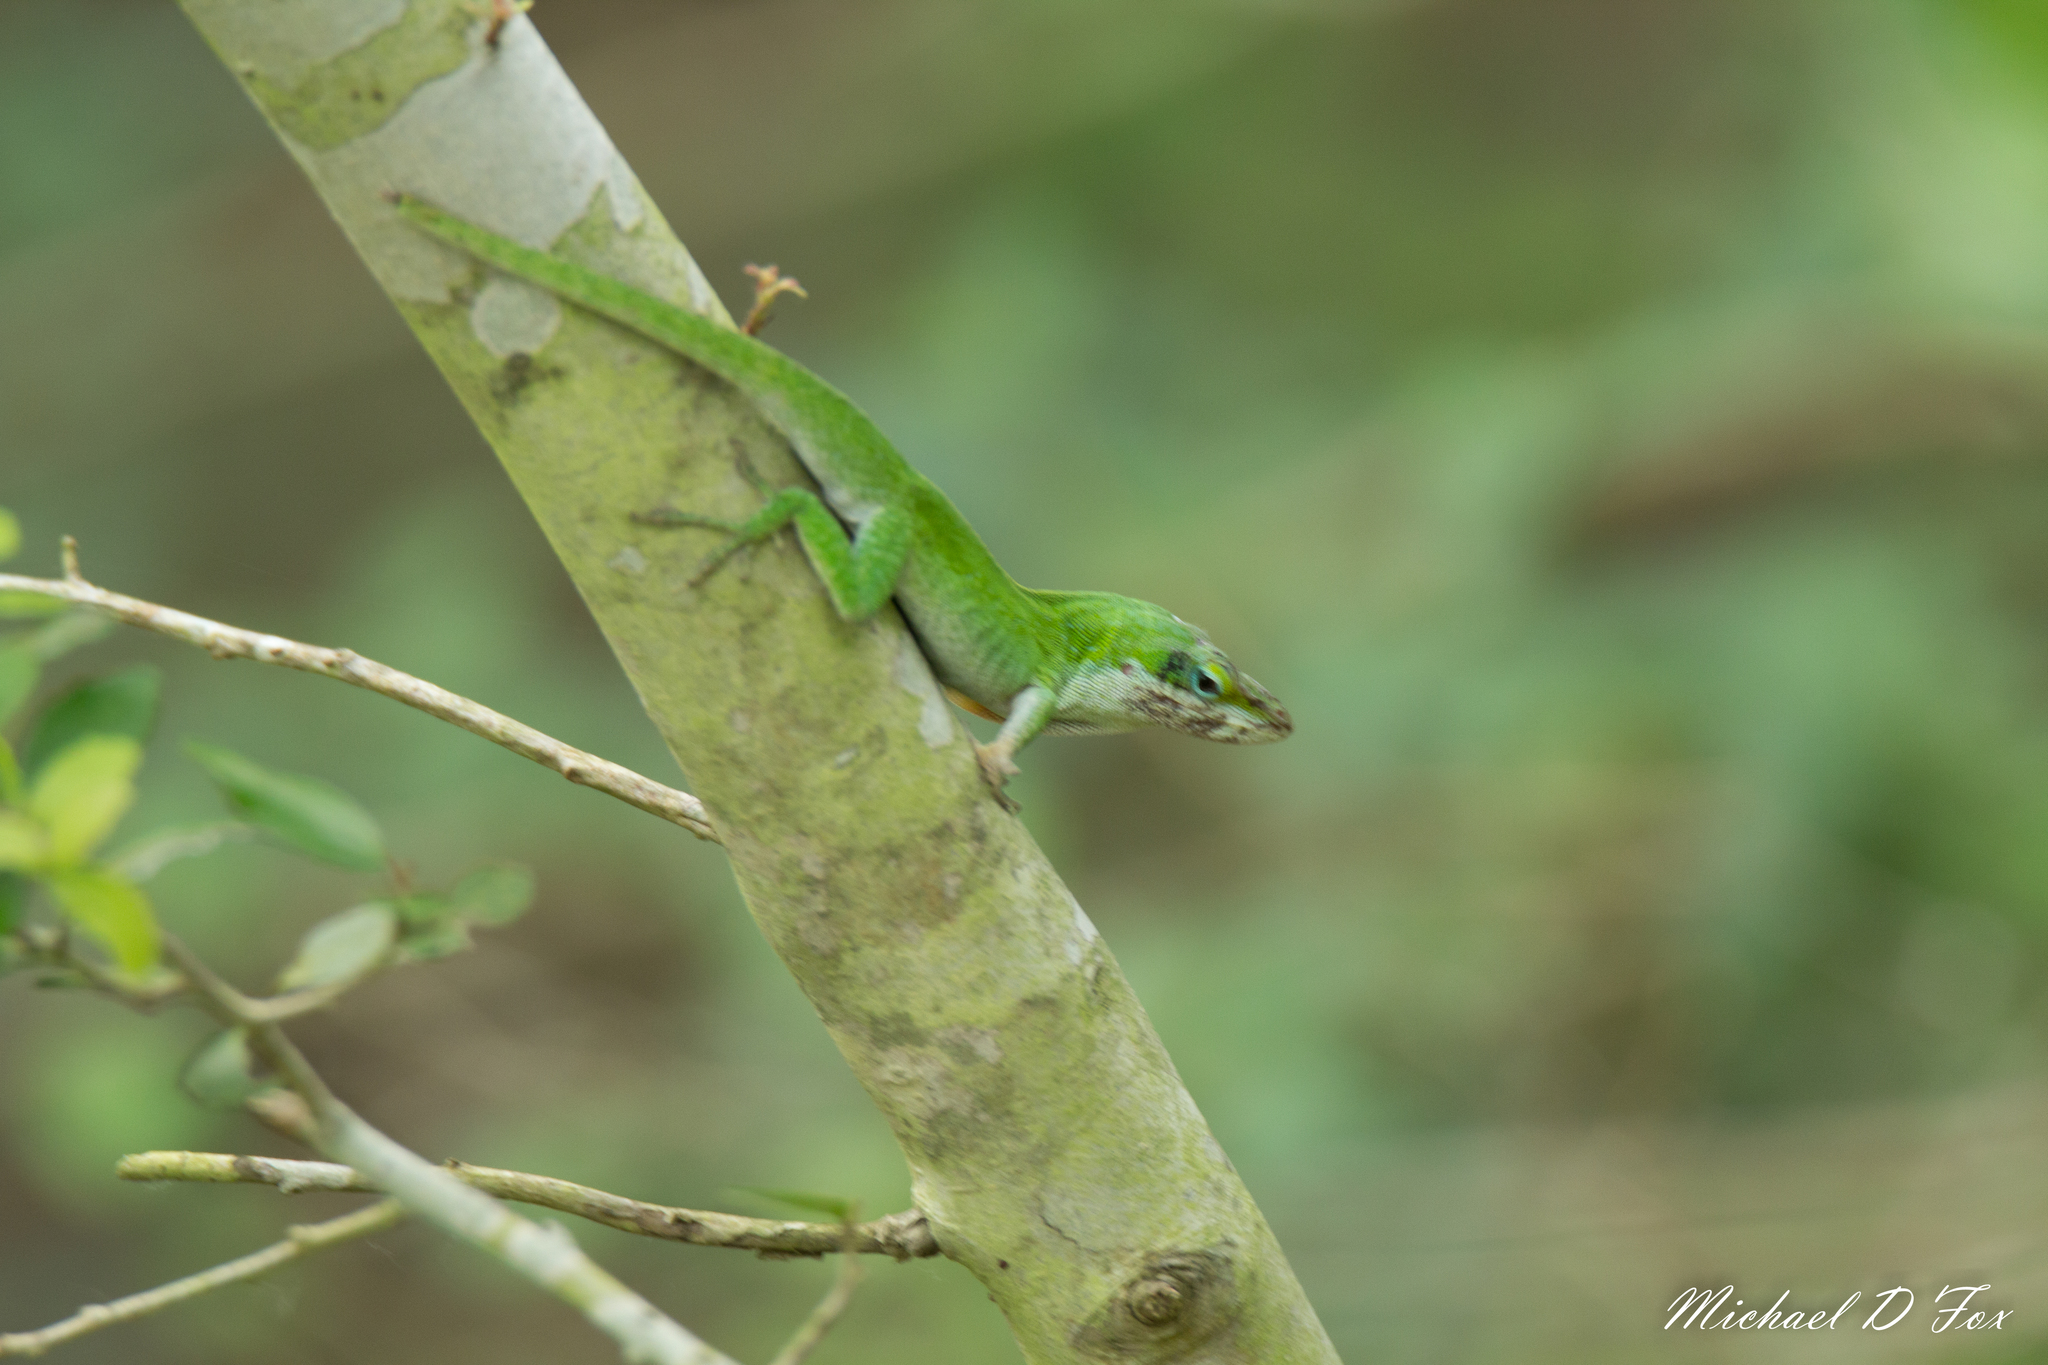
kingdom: Animalia
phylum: Chordata
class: Squamata
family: Dactyloidae
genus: Anolis
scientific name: Anolis carolinensis
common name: Green anole
